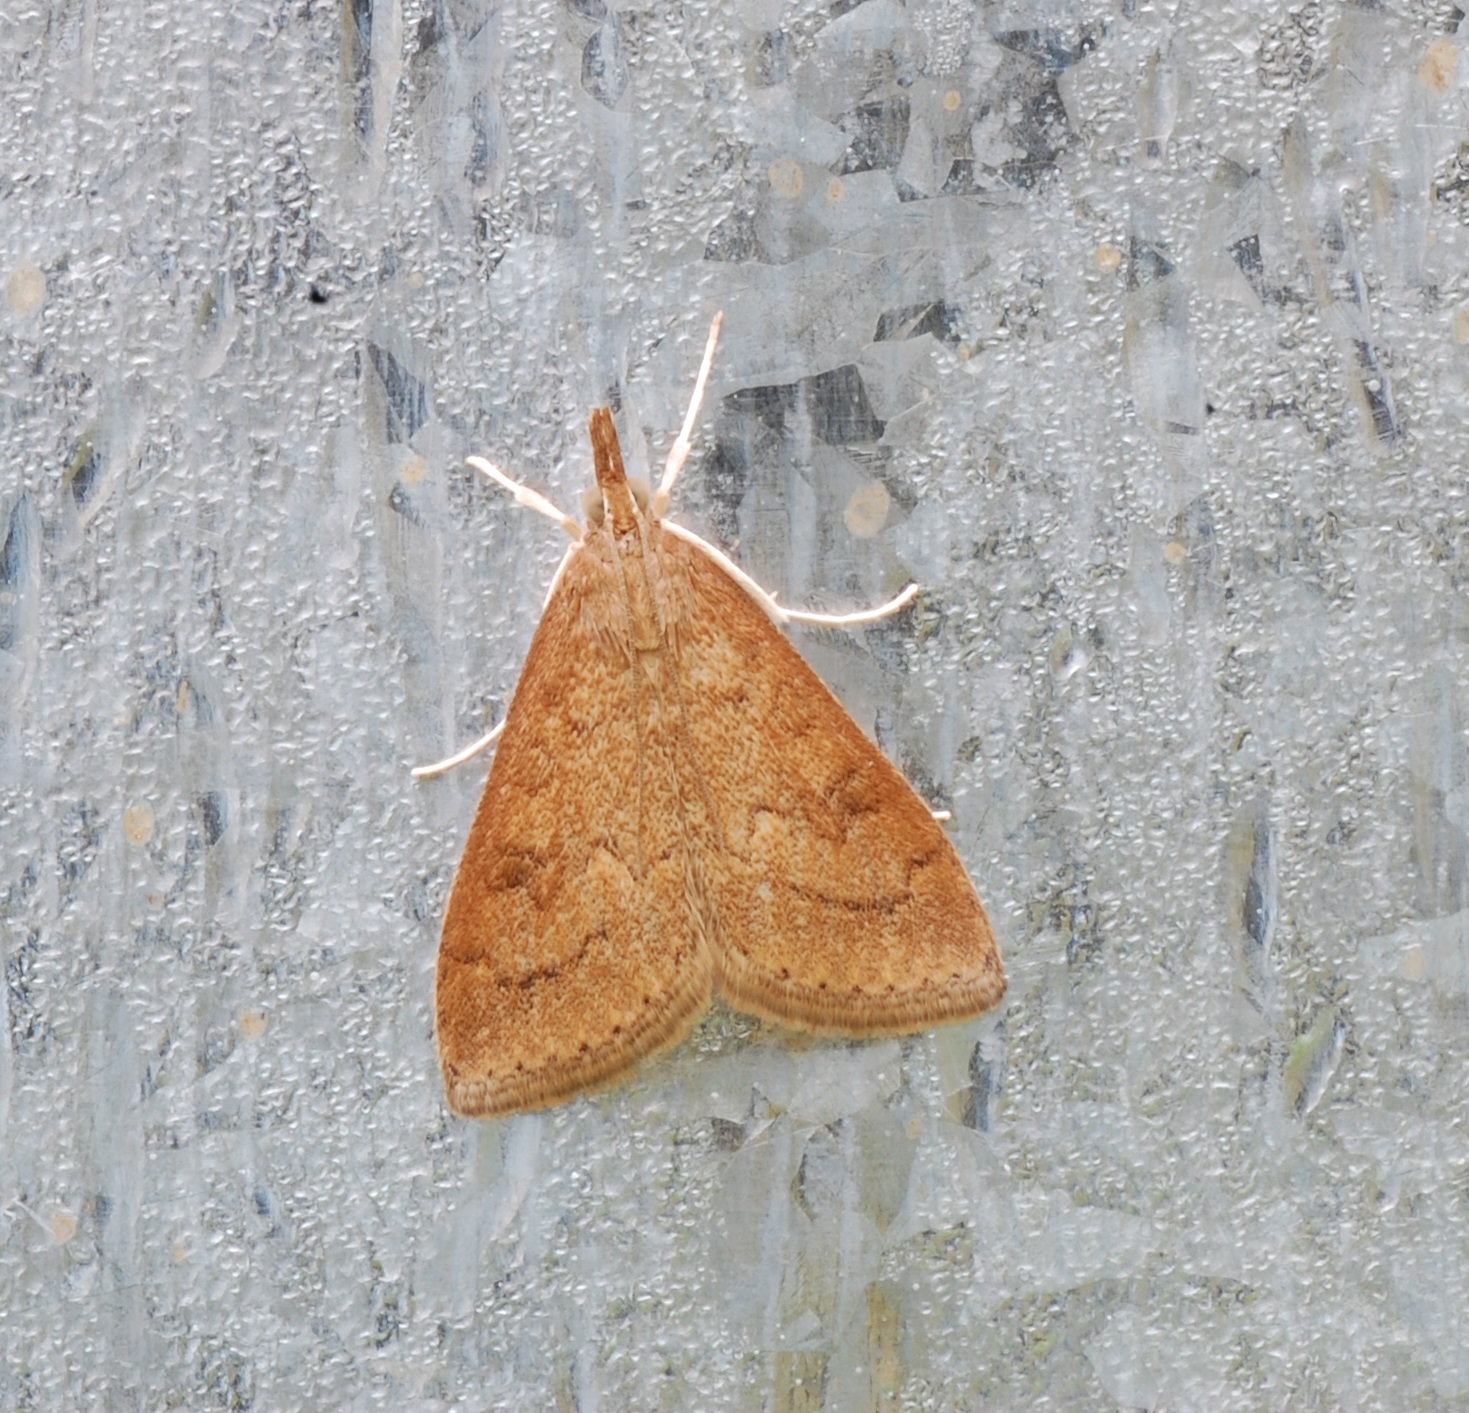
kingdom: Animalia
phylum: Arthropoda
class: Insecta
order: Lepidoptera
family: Crambidae
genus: Udea
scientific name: Udea rubigalis
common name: Celery leaftier moth
